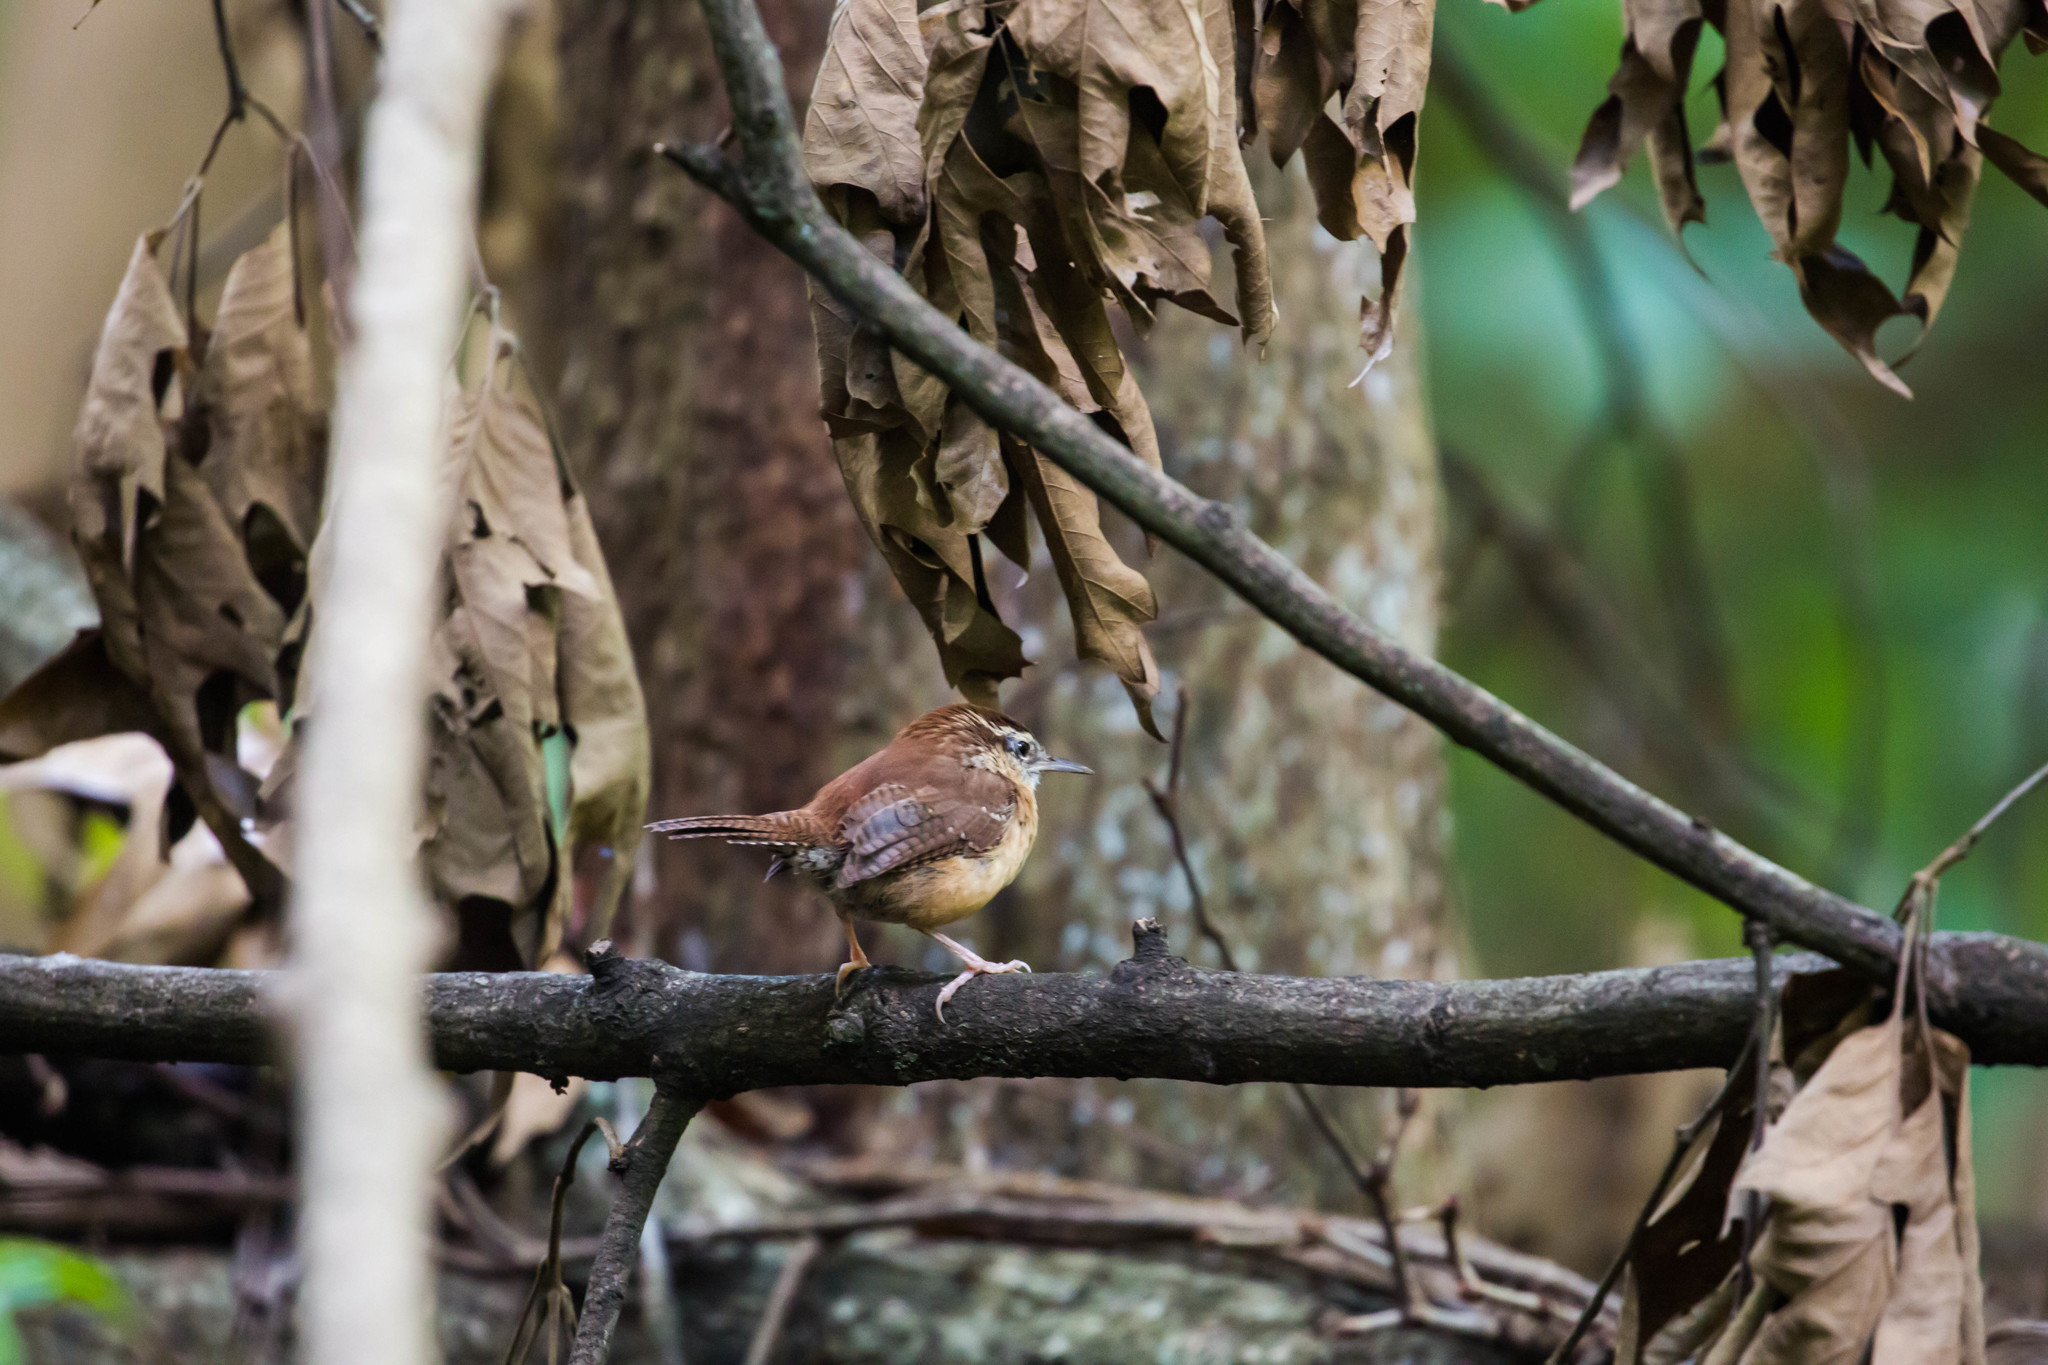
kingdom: Animalia
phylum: Chordata
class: Aves
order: Passeriformes
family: Troglodytidae
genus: Thryothorus
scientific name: Thryothorus ludovicianus
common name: Carolina wren
